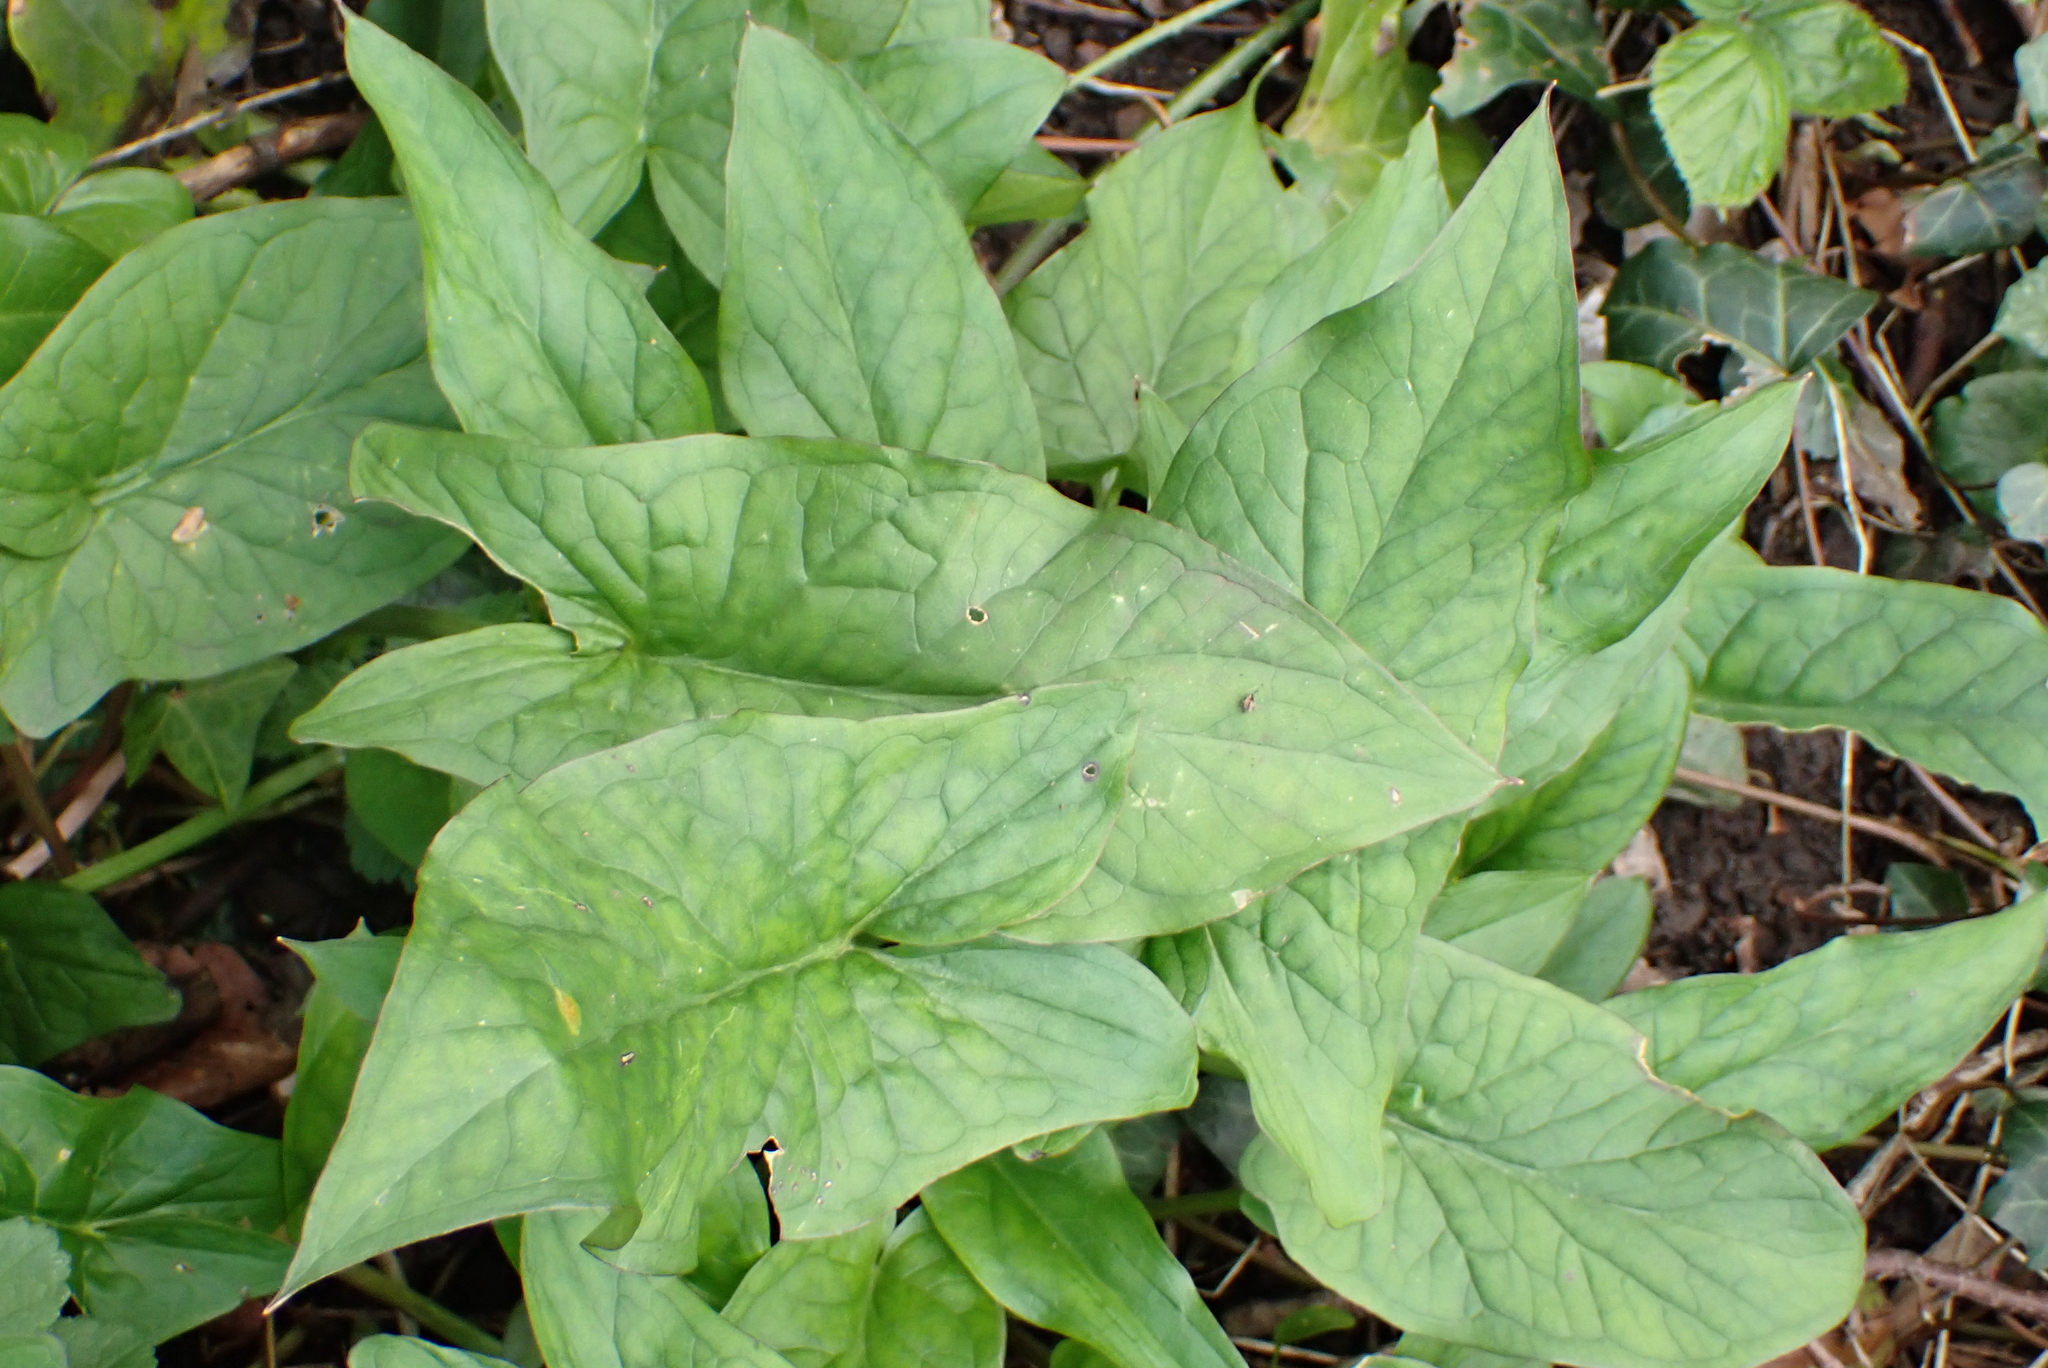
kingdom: Plantae
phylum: Tracheophyta
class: Liliopsida
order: Alismatales
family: Araceae
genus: Arum
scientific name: Arum maculatum
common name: Lords-and-ladies
